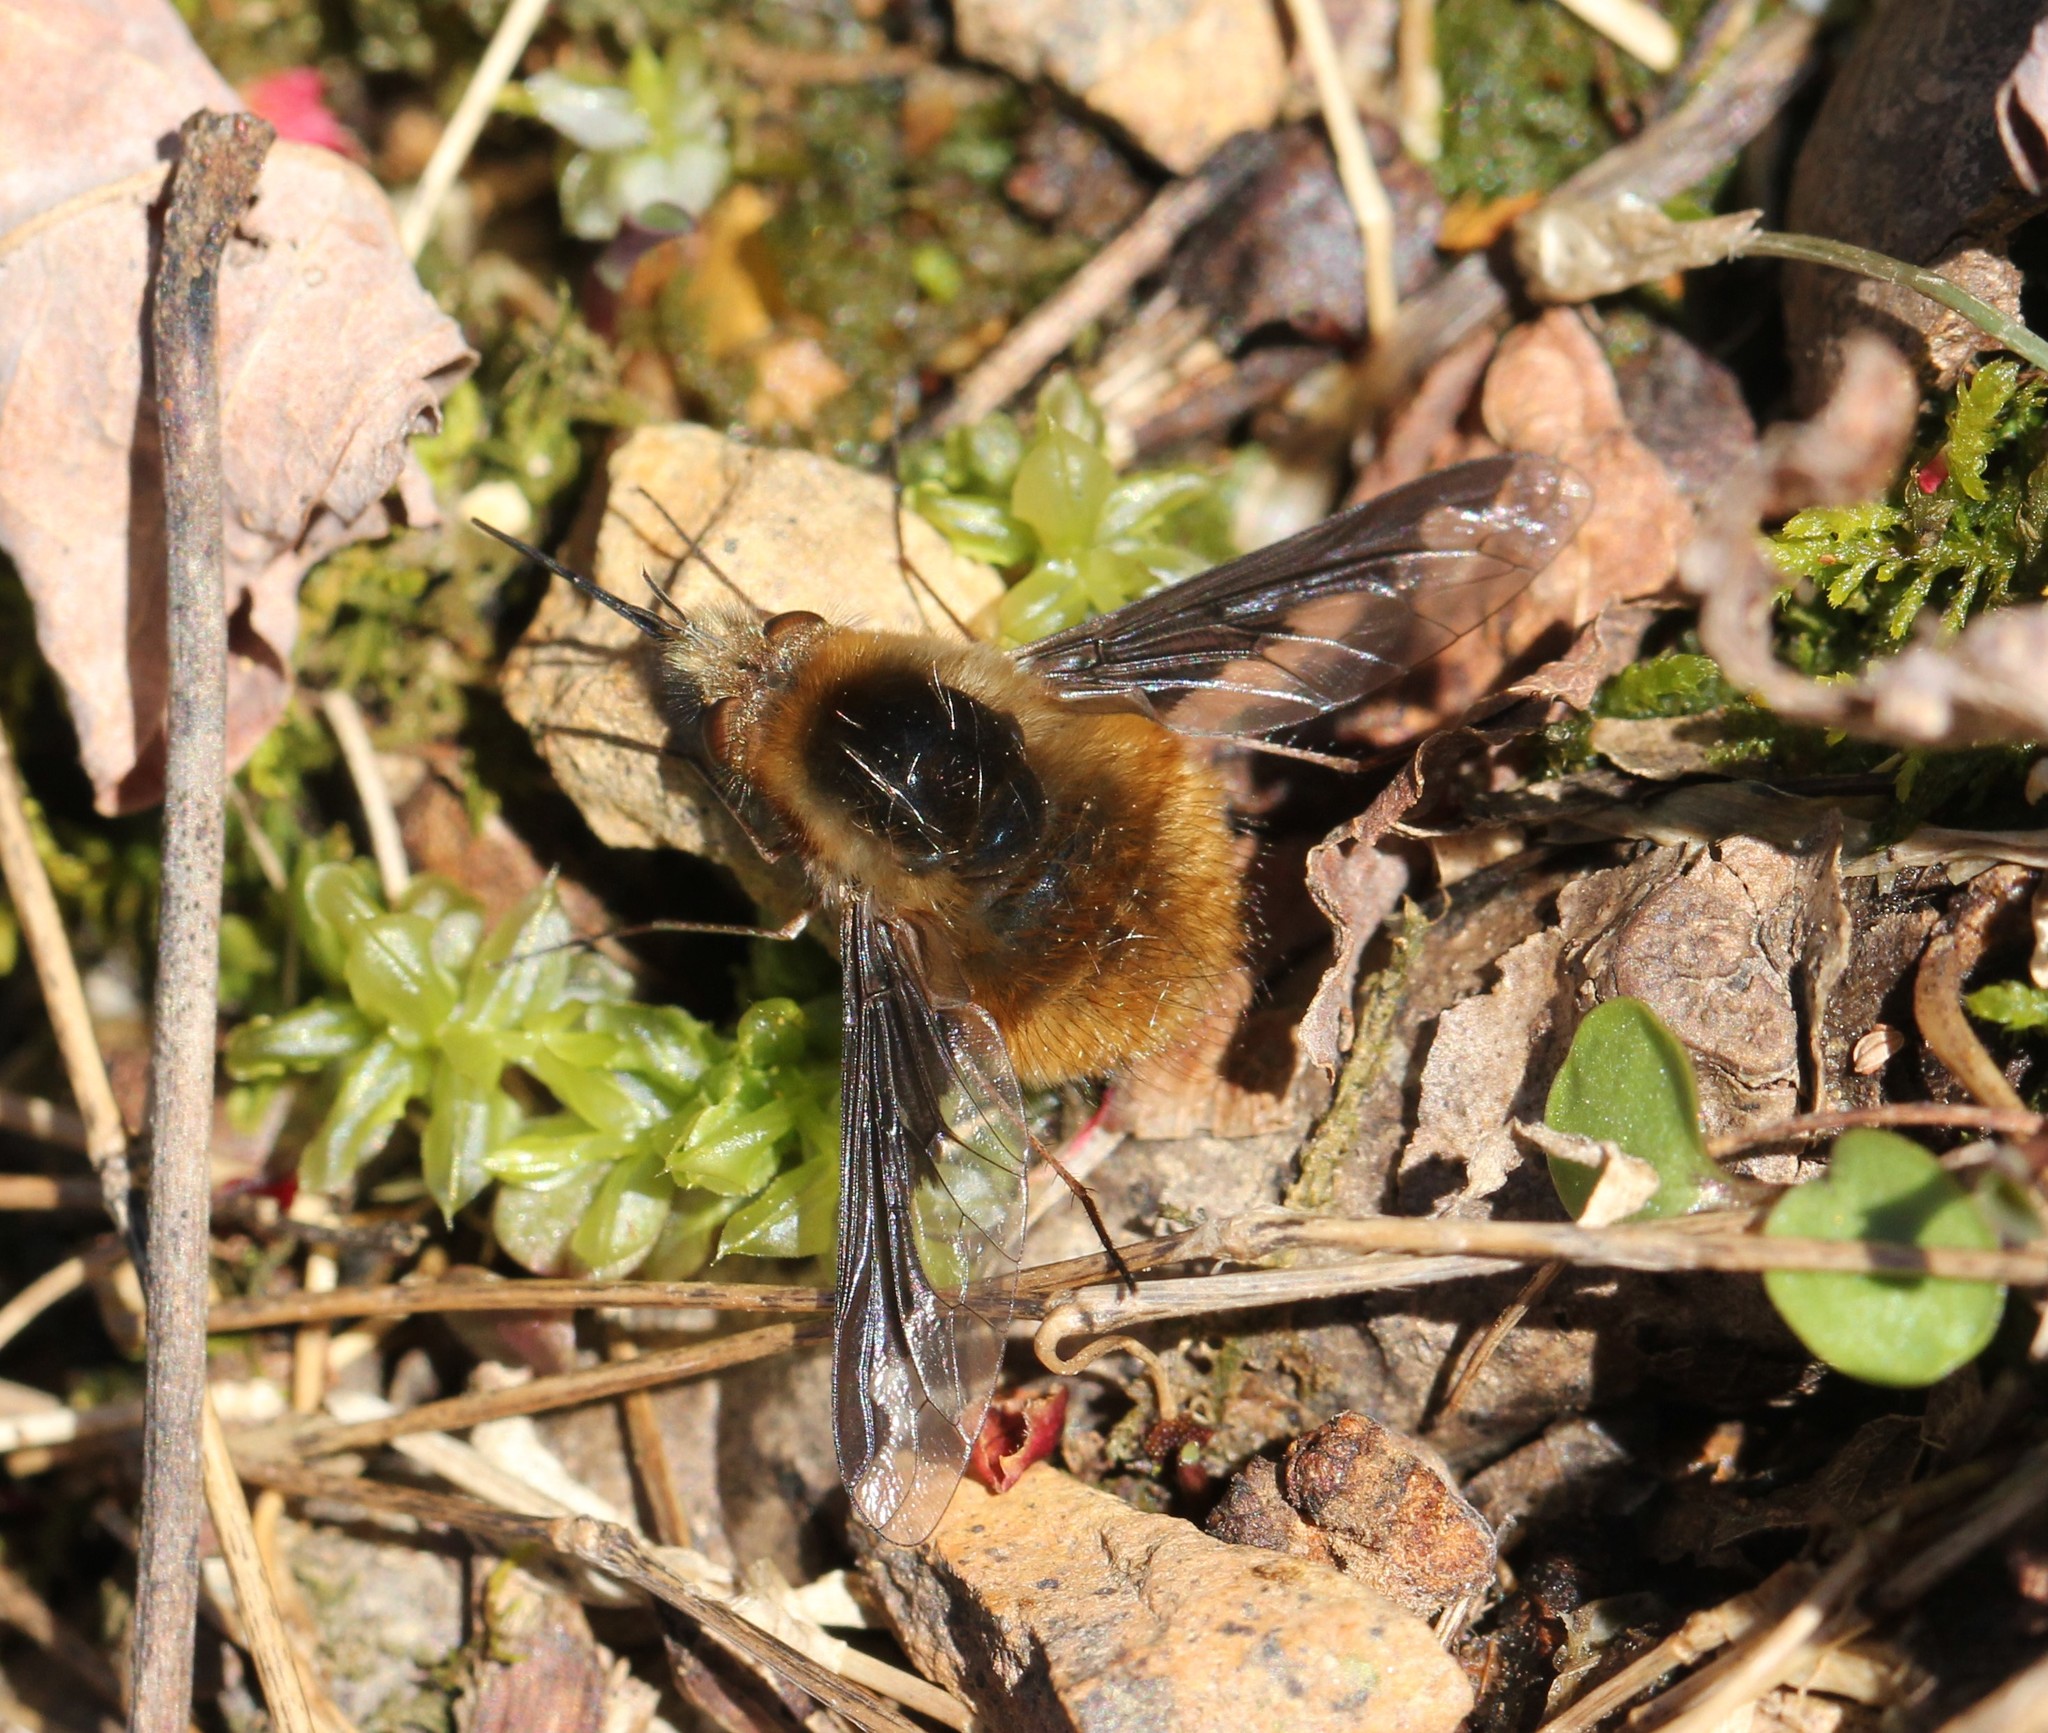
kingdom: Animalia
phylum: Arthropoda
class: Insecta
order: Diptera
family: Bombyliidae
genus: Bombylius
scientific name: Bombylius major
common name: Bee fly
